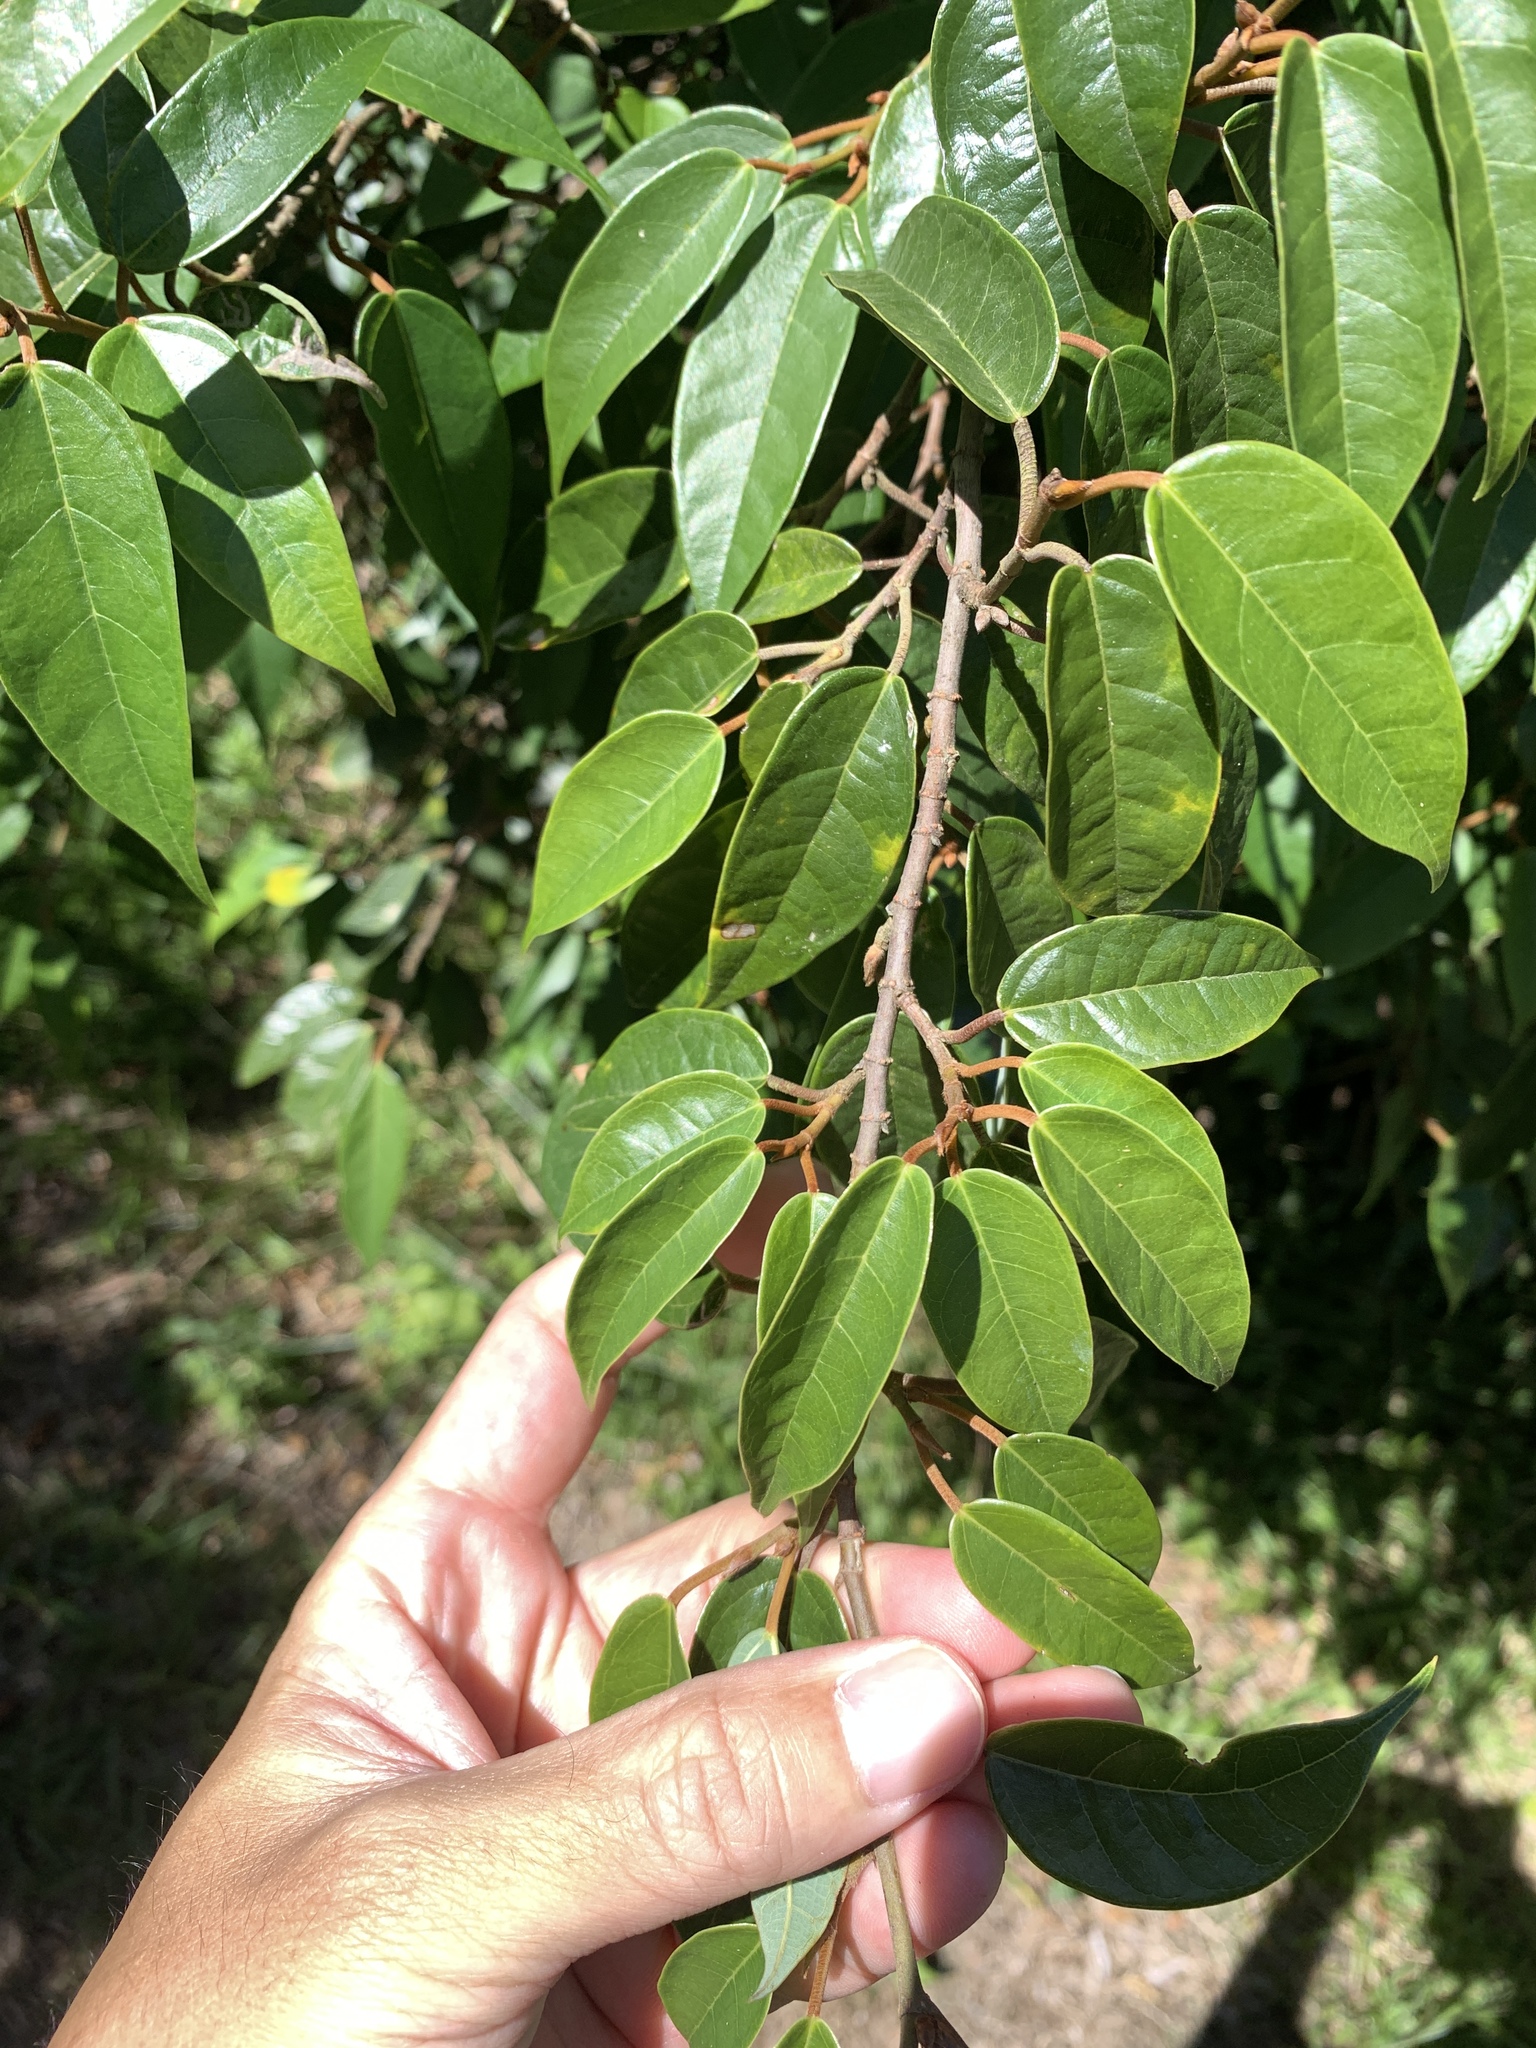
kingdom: Plantae
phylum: Tracheophyta
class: Magnoliopsida
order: Rosales
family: Moraceae
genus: Ficus
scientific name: Ficus sarmentosa
